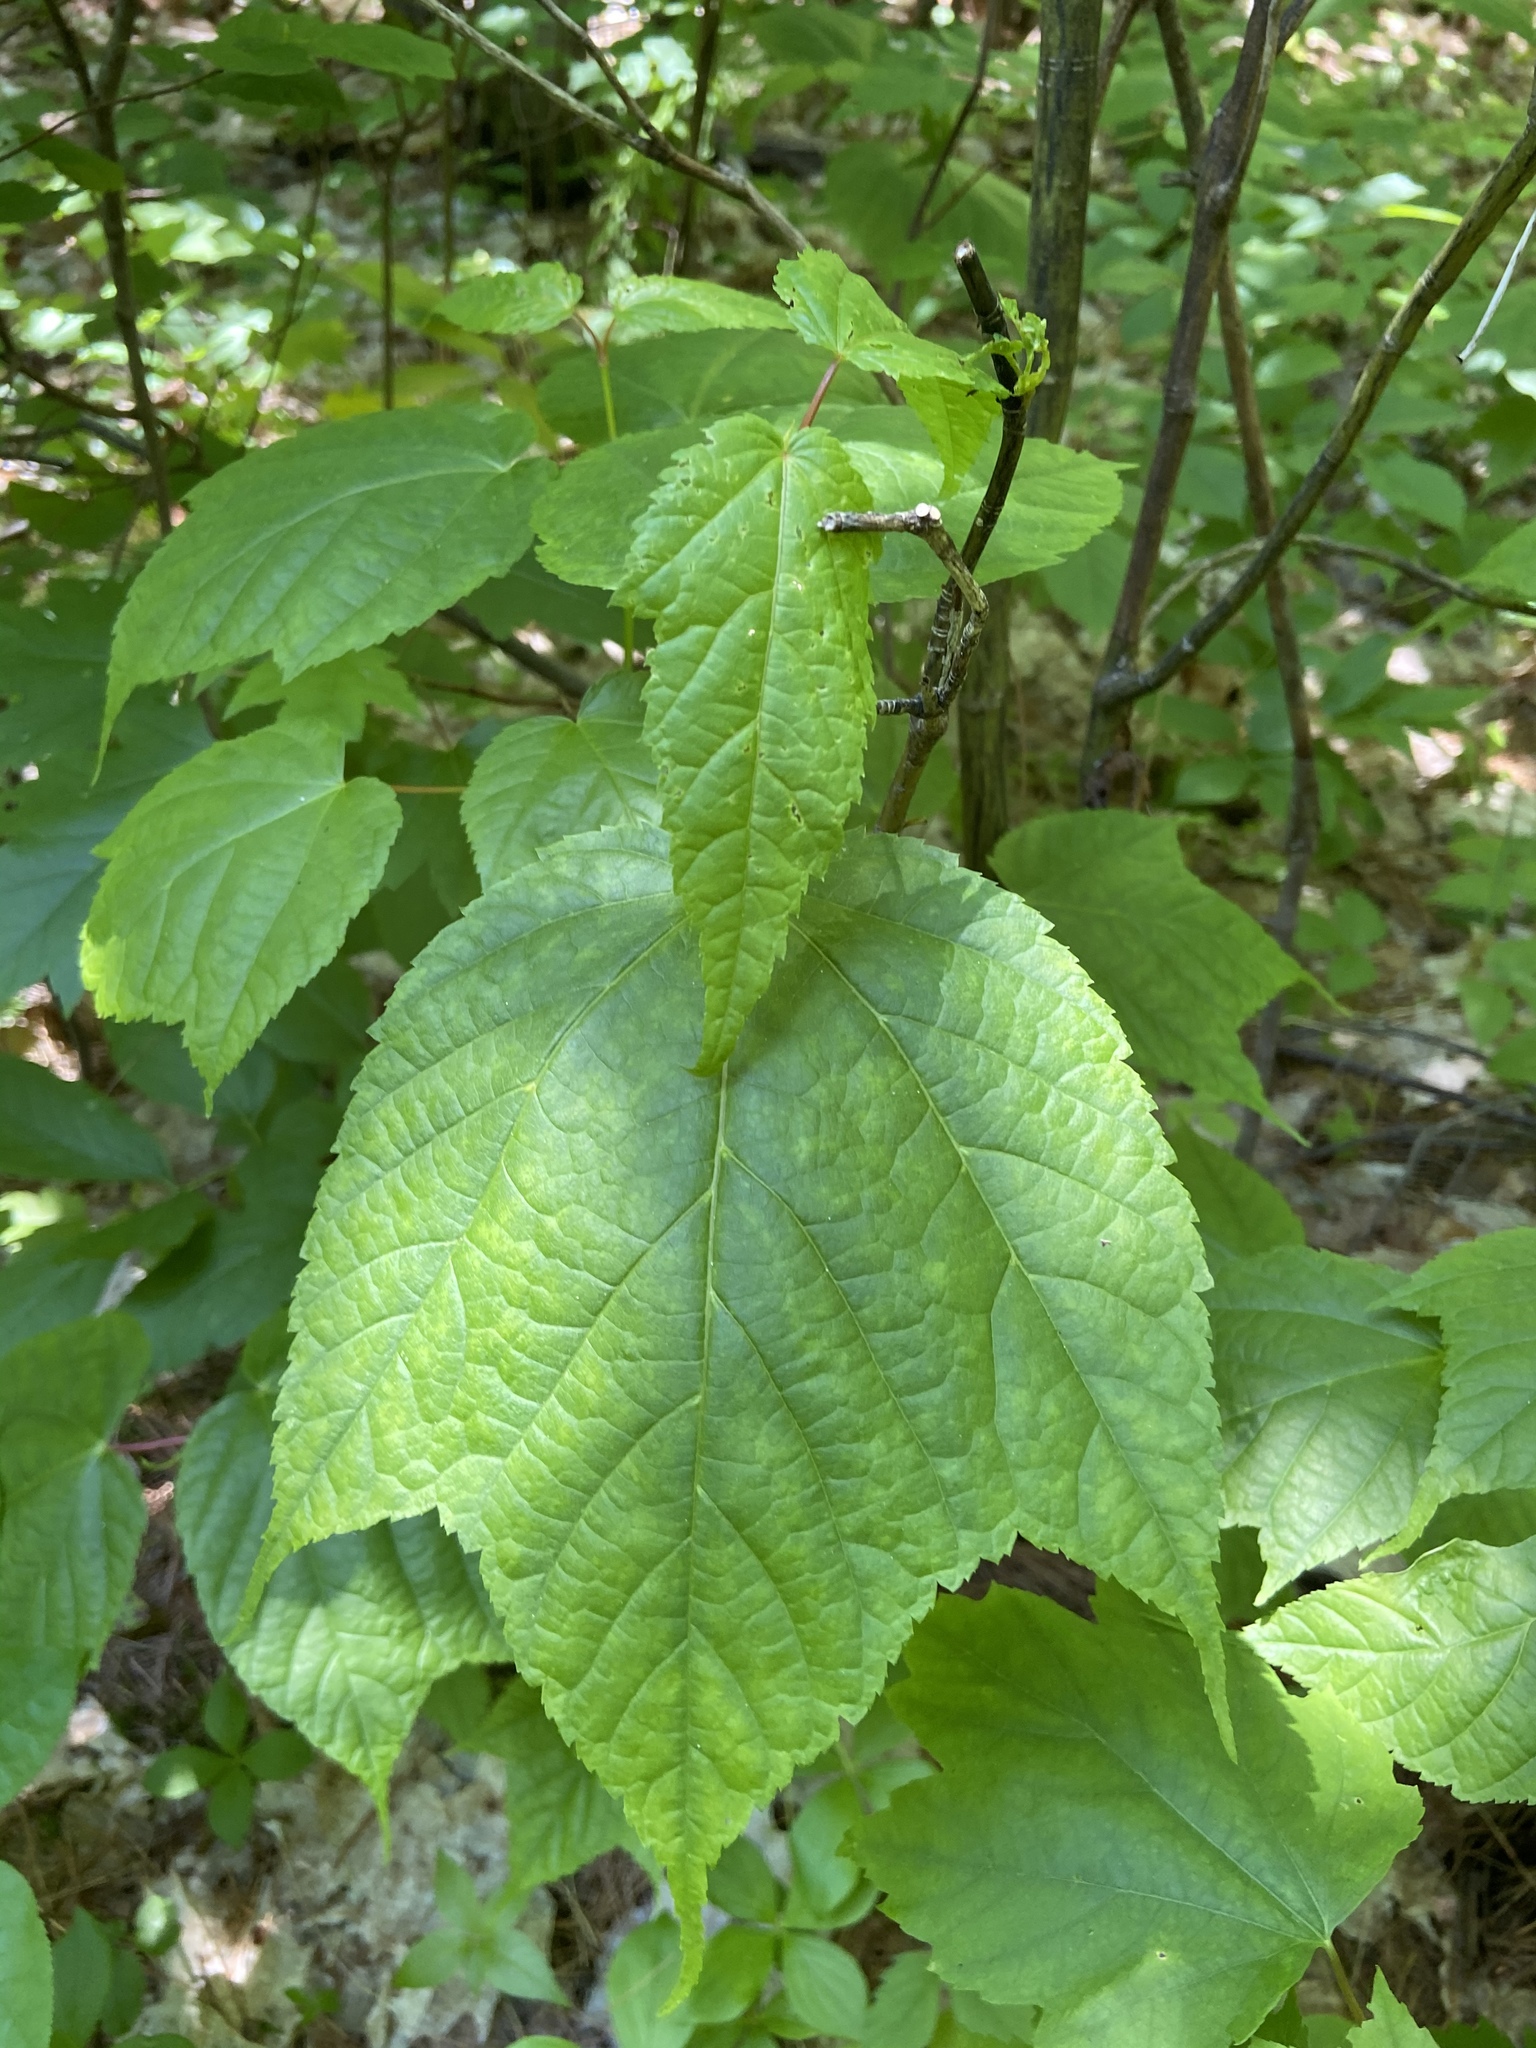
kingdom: Plantae
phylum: Tracheophyta
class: Magnoliopsida
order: Sapindales
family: Sapindaceae
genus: Acer
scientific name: Acer pensylvanicum
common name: Moosewood
